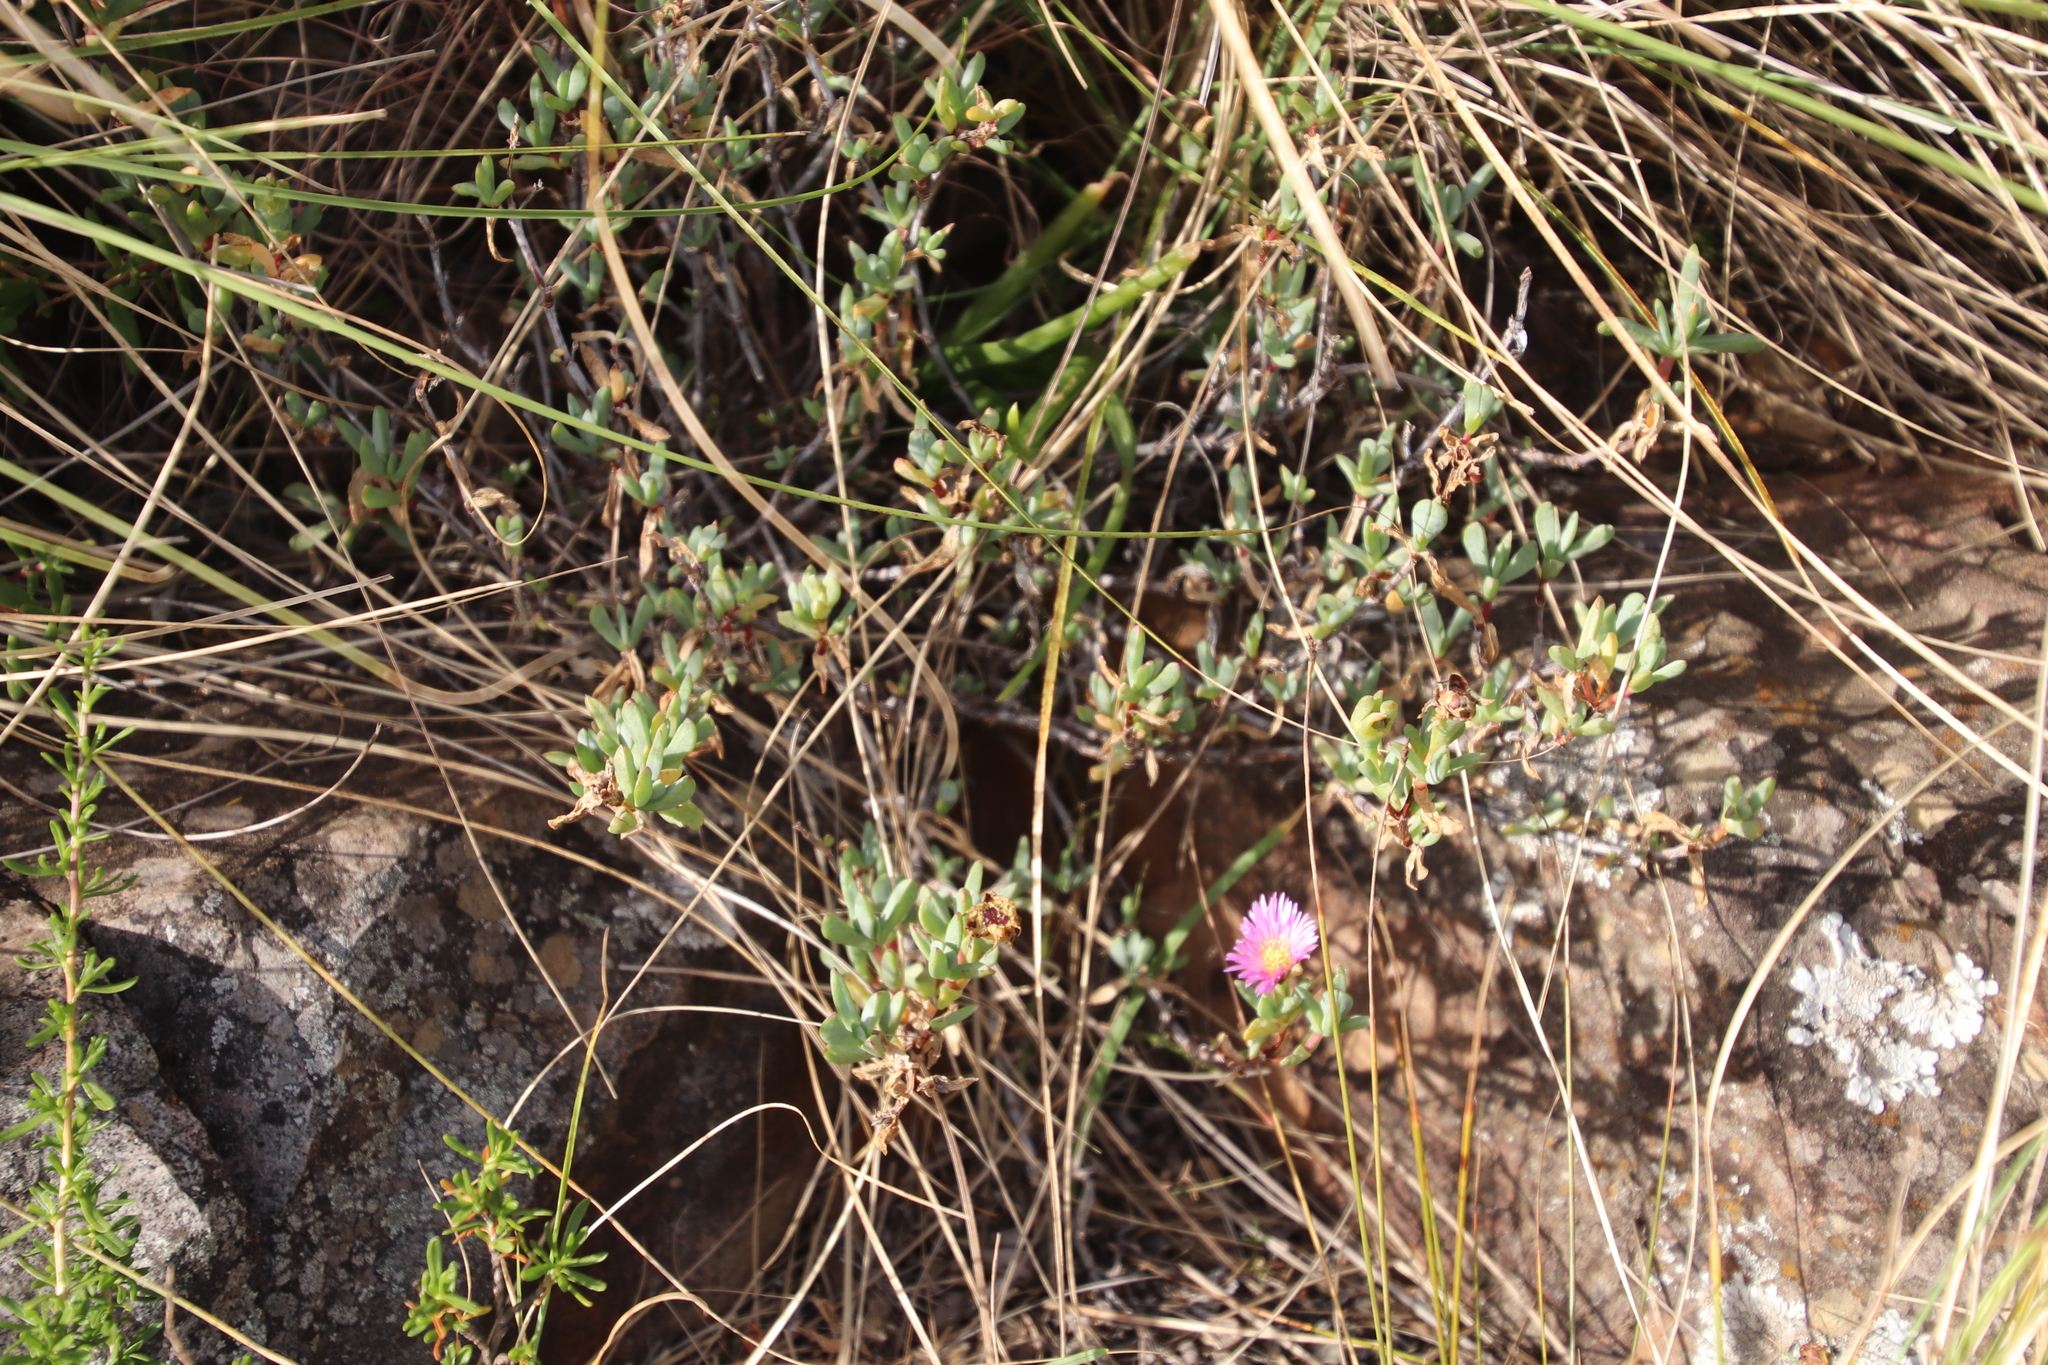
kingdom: Plantae
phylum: Tracheophyta
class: Magnoliopsida
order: Caryophyllales
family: Aizoaceae
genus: Oscularia
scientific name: Oscularia falciformis
